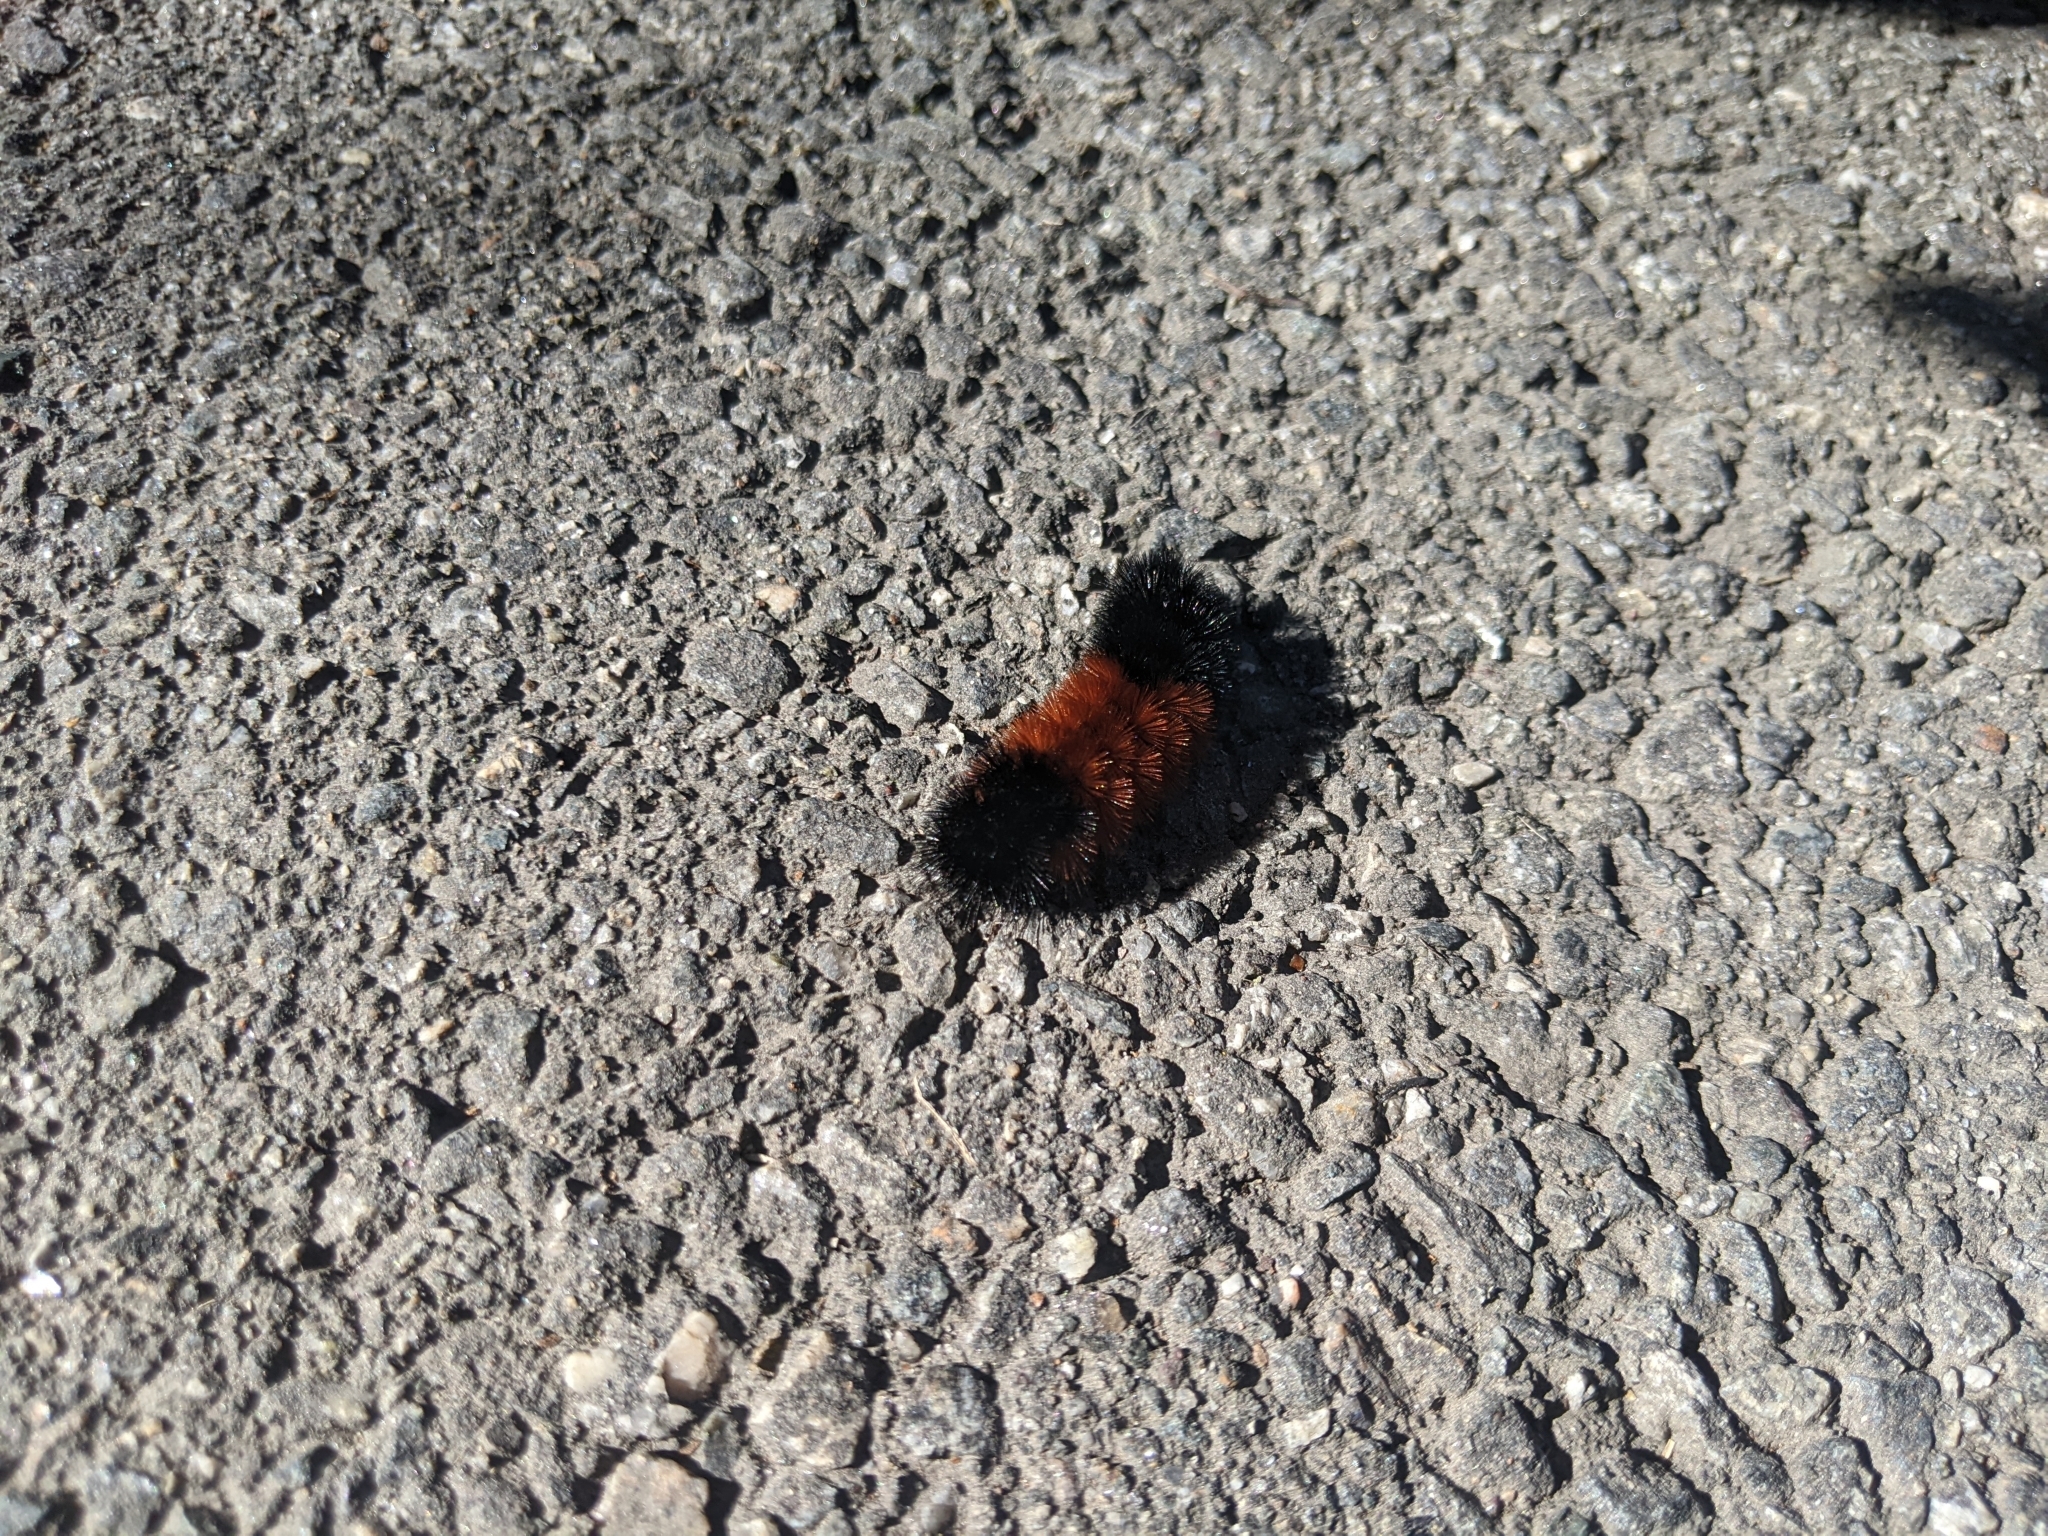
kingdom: Animalia
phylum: Arthropoda
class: Insecta
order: Lepidoptera
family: Erebidae
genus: Pyrrharctia
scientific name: Pyrrharctia isabella
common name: Isabella tiger moth
